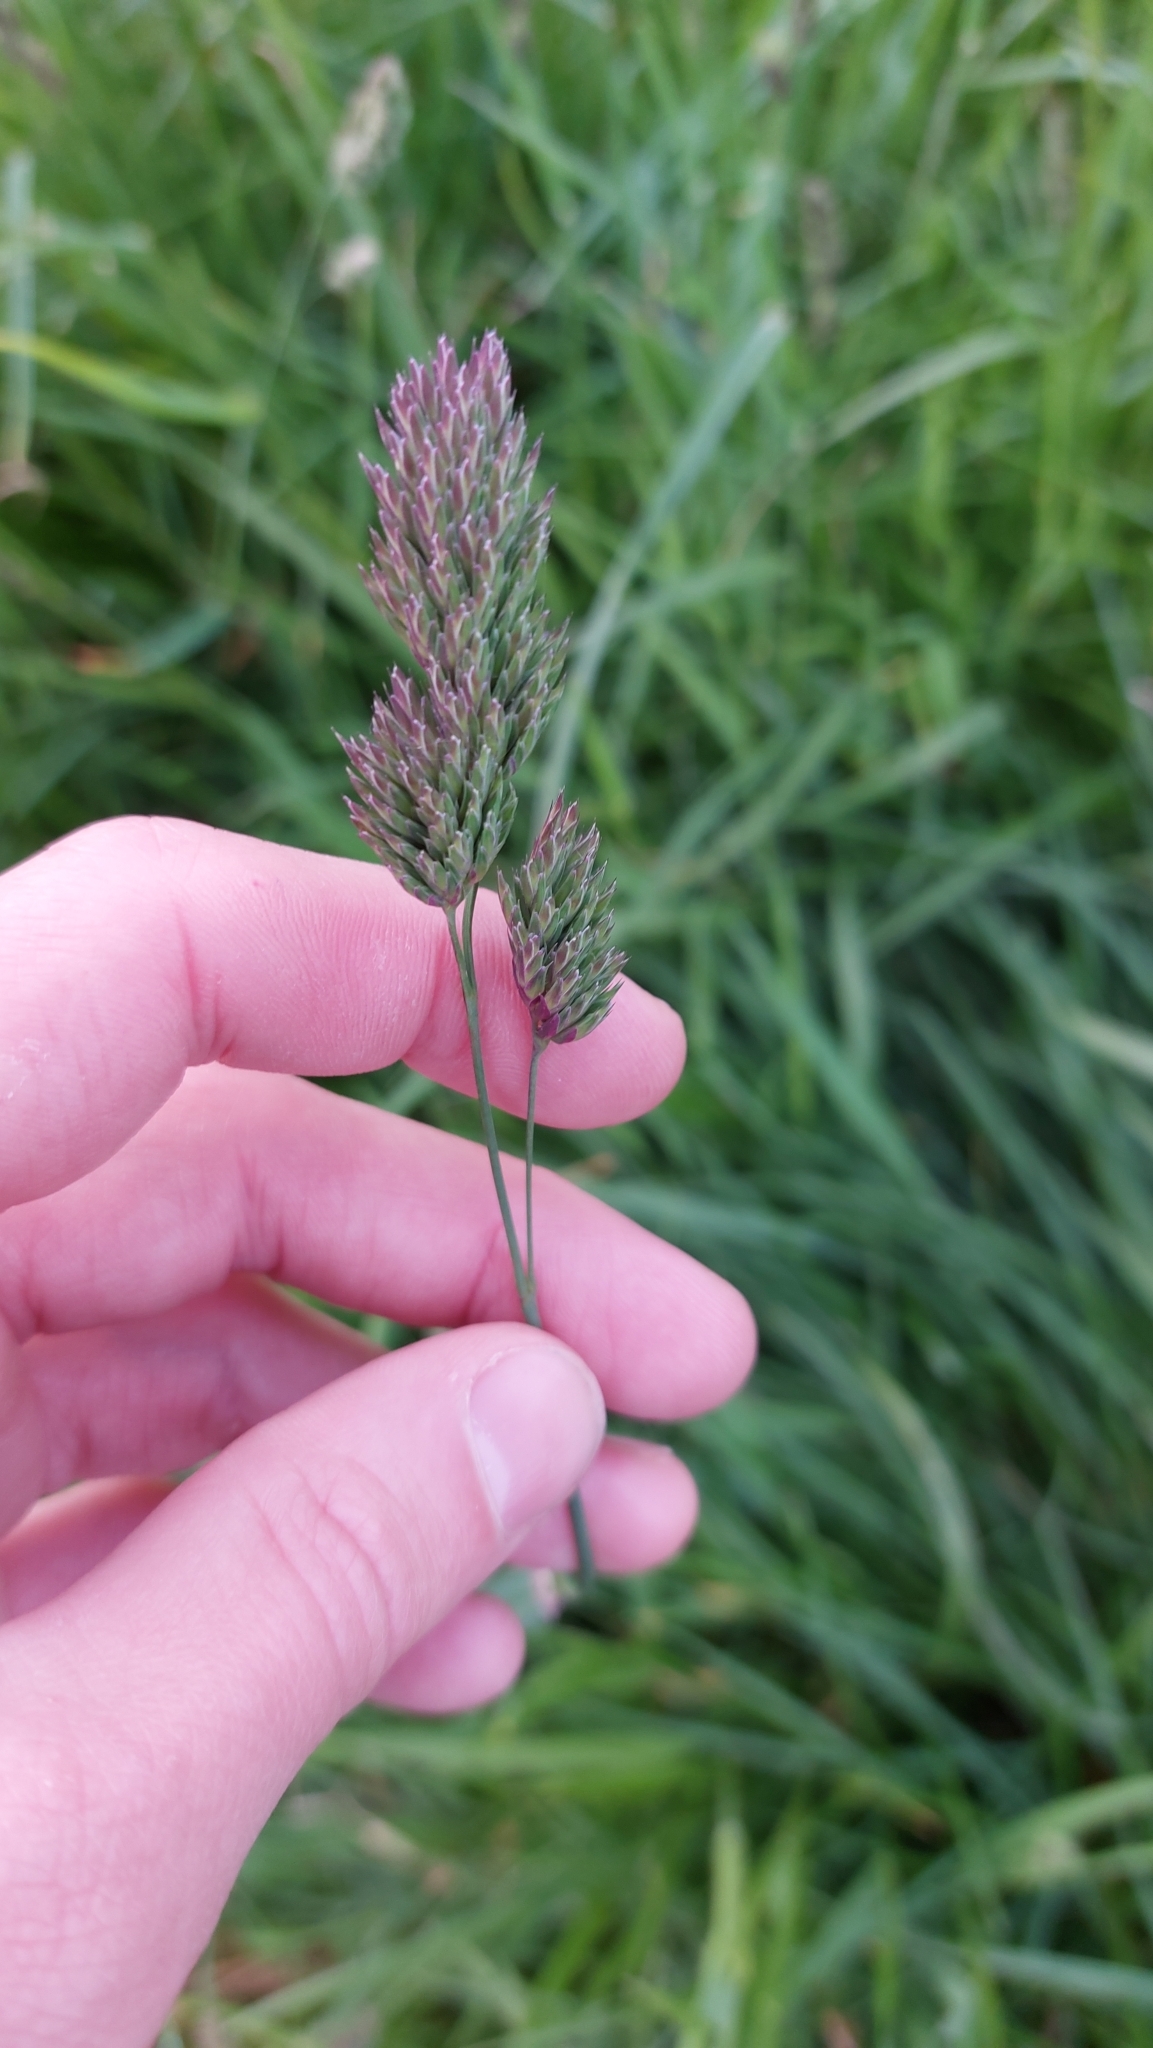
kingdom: Plantae
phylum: Tracheophyta
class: Liliopsida
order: Poales
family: Poaceae
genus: Dactylis
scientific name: Dactylis glomerata
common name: Orchardgrass
